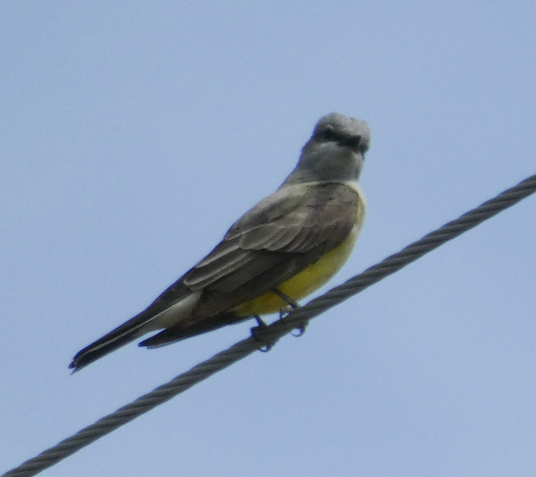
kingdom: Animalia
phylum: Chordata
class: Aves
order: Passeriformes
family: Tyrannidae
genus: Tyrannus
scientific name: Tyrannus verticalis
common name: Western kingbird
